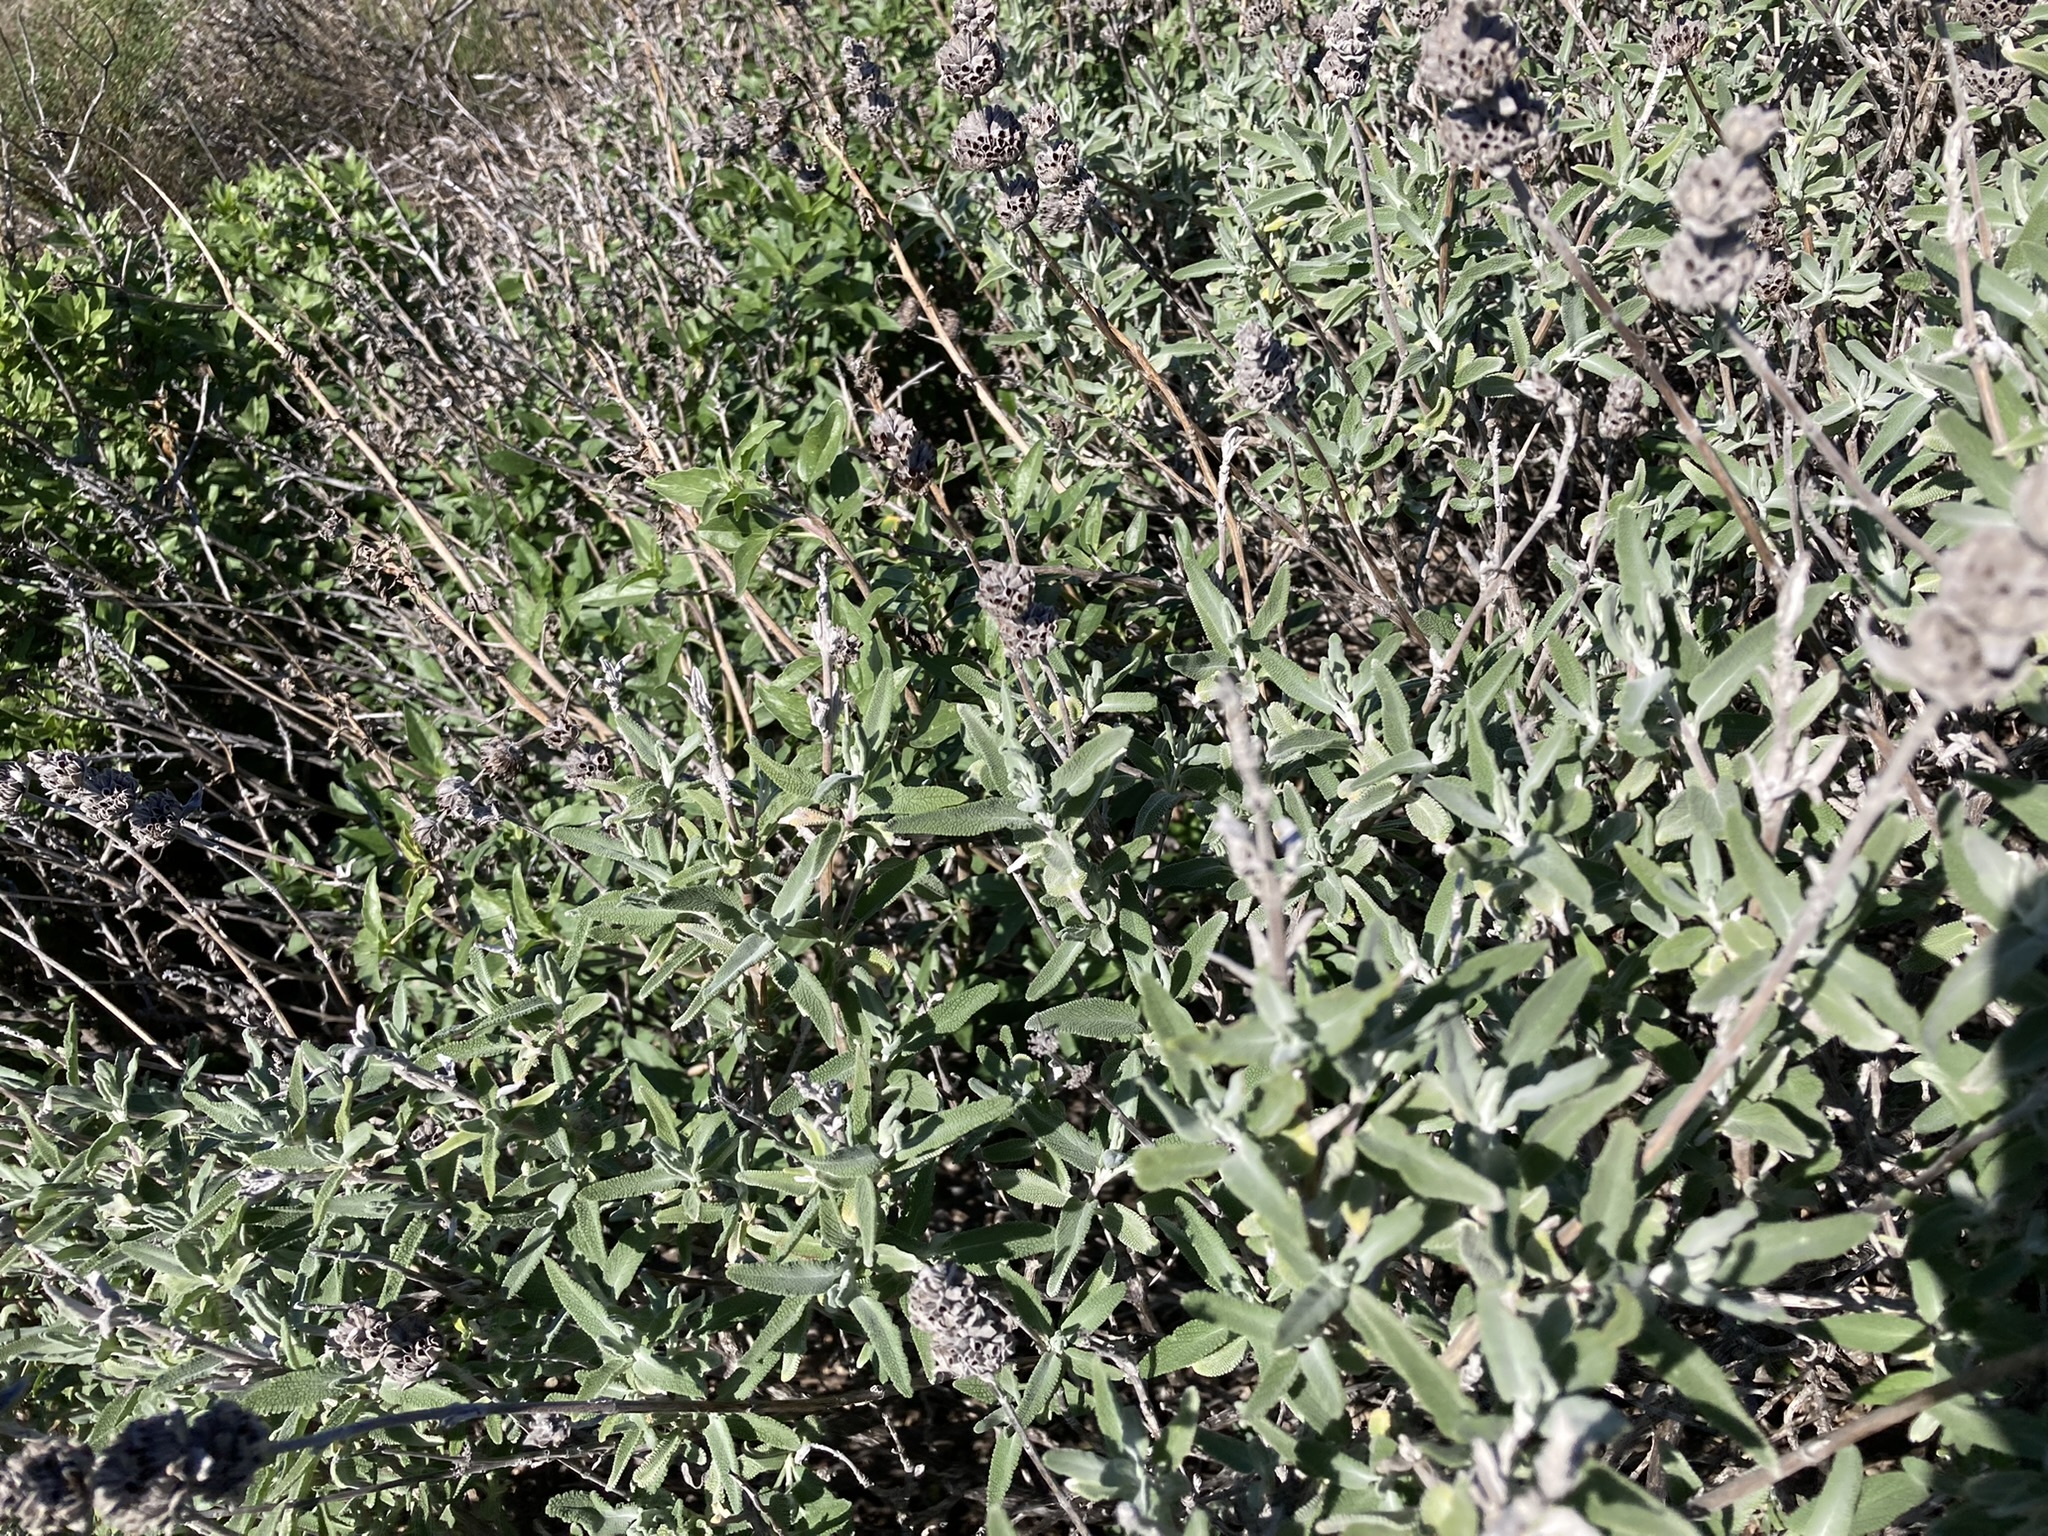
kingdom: Plantae
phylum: Tracheophyta
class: Magnoliopsida
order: Lamiales
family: Lamiaceae
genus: Salvia
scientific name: Salvia leucophylla
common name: Purple sage
